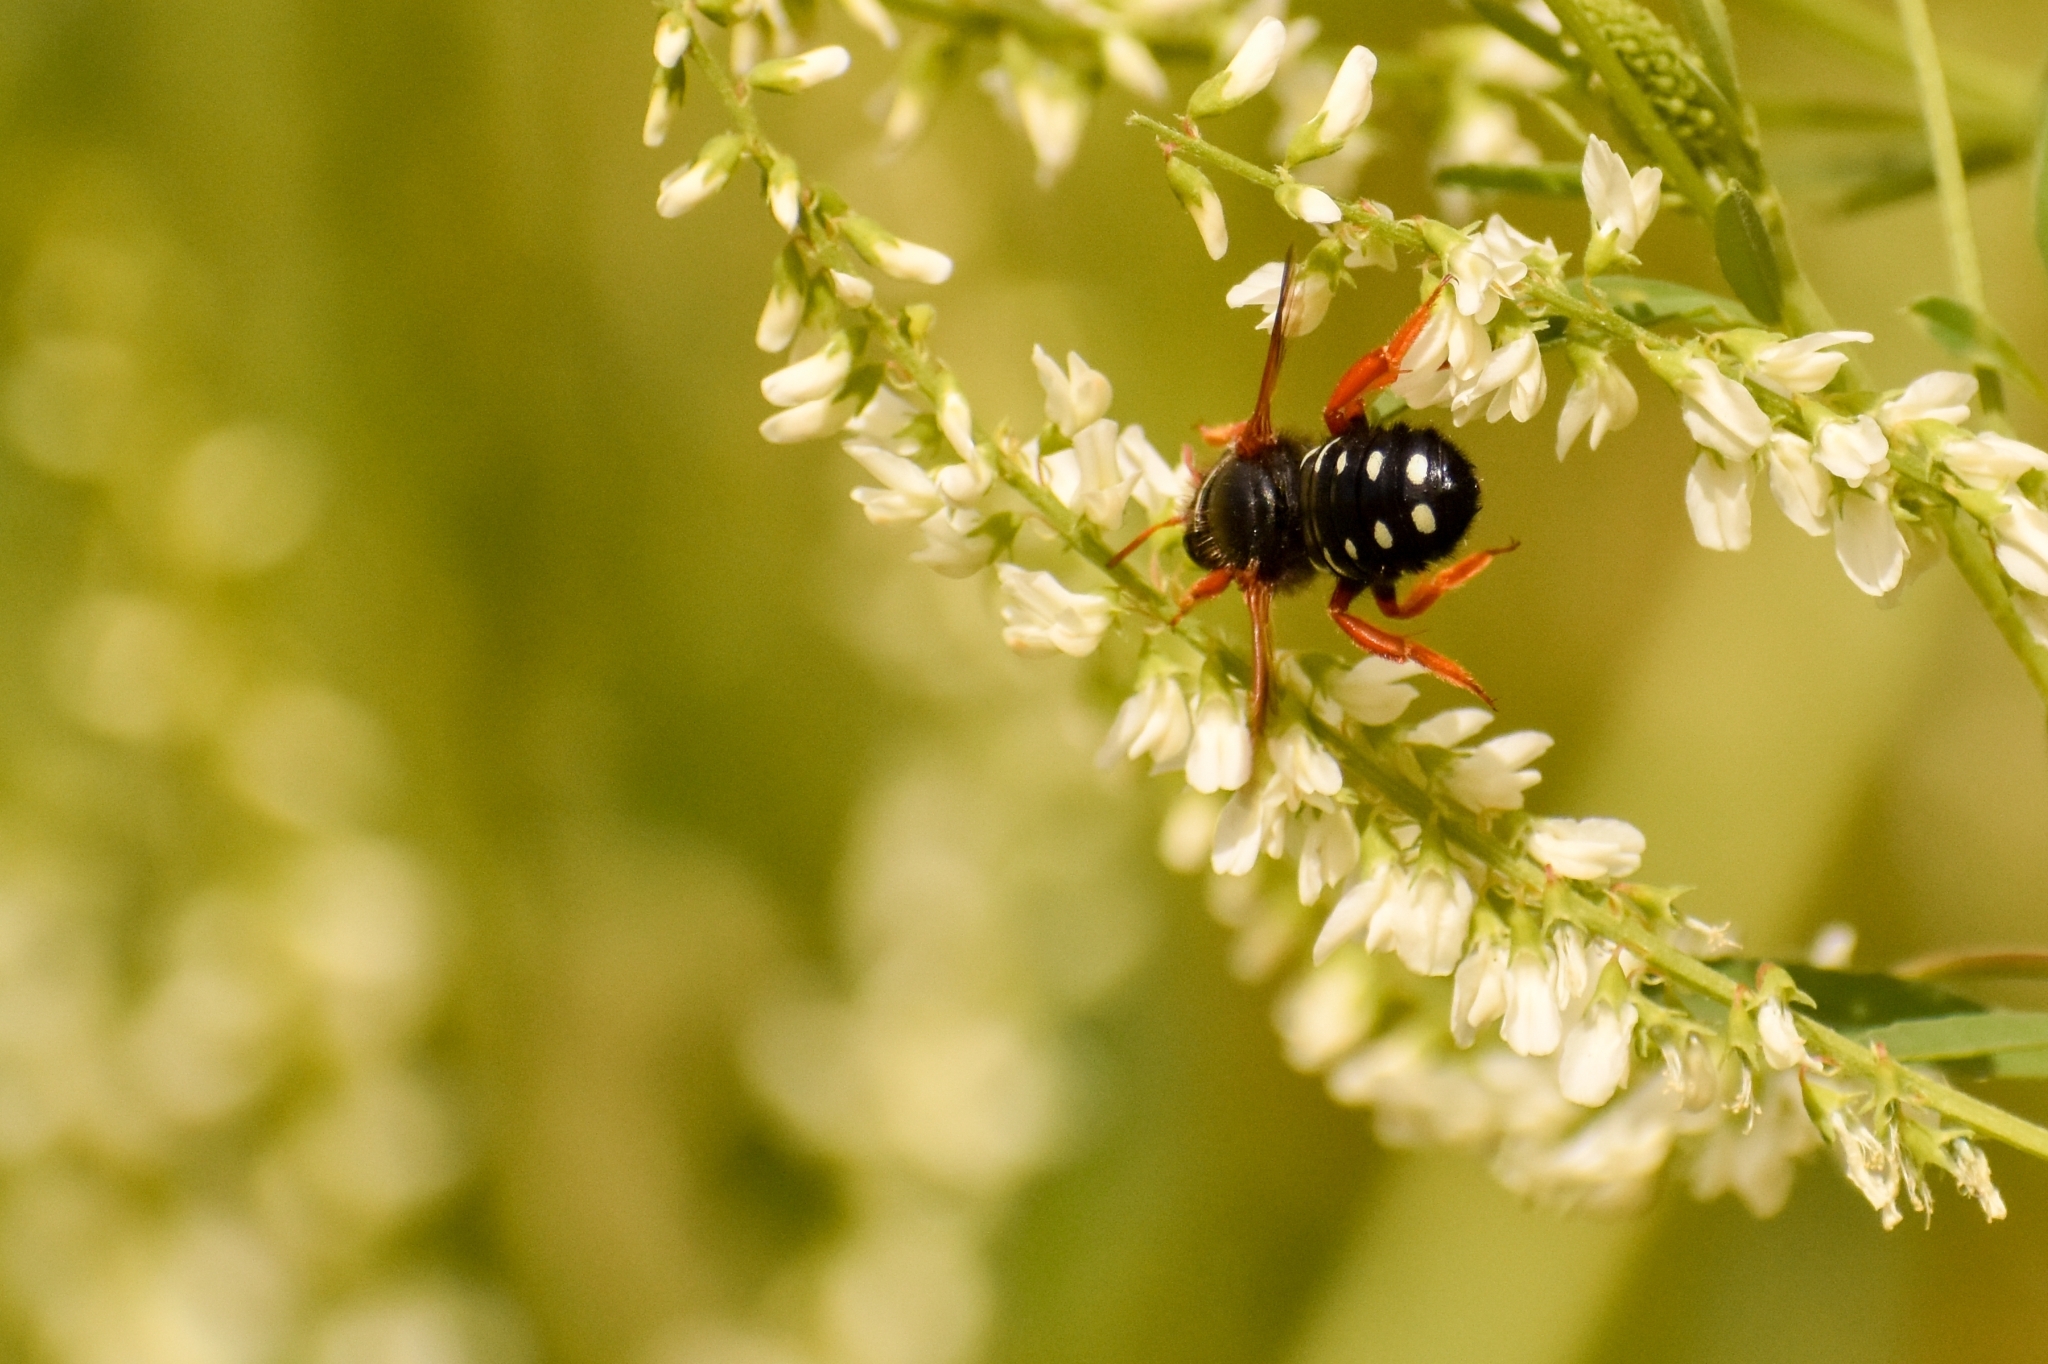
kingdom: Animalia
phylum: Arthropoda
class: Insecta
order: Hymenoptera
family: Megachilidae
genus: Anthidium
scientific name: Anthidium chubuti
